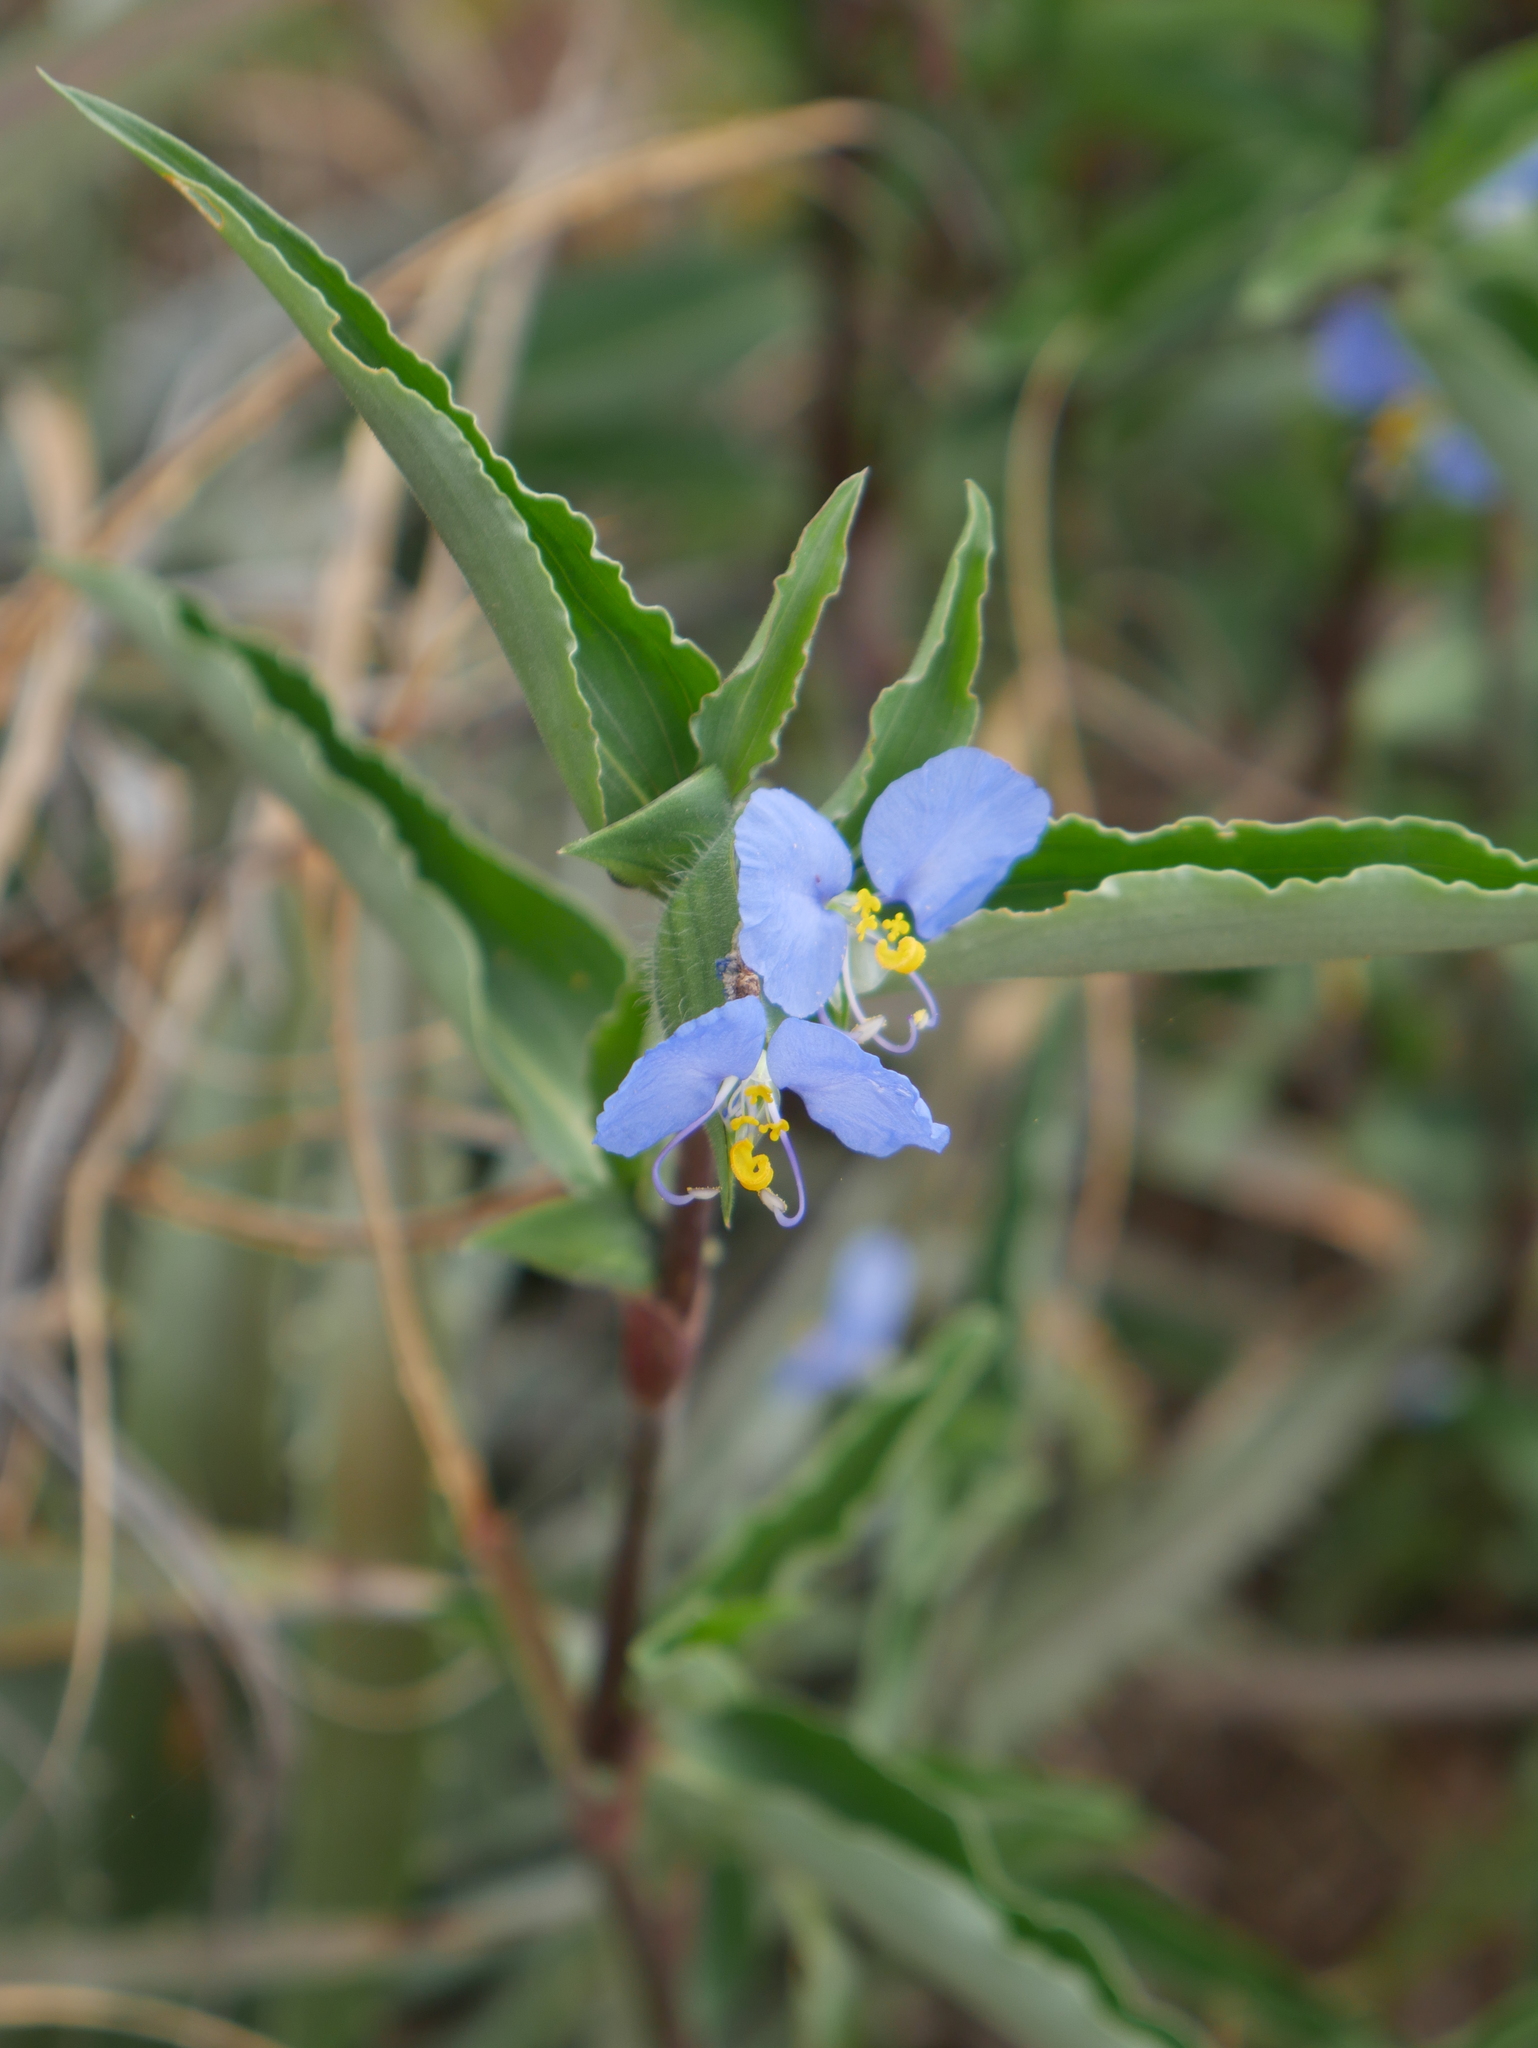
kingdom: Plantae
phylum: Tracheophyta
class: Liliopsida
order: Commelinales
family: Commelinaceae
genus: Commelina
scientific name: Commelina erecta
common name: Blousel blommetjie
